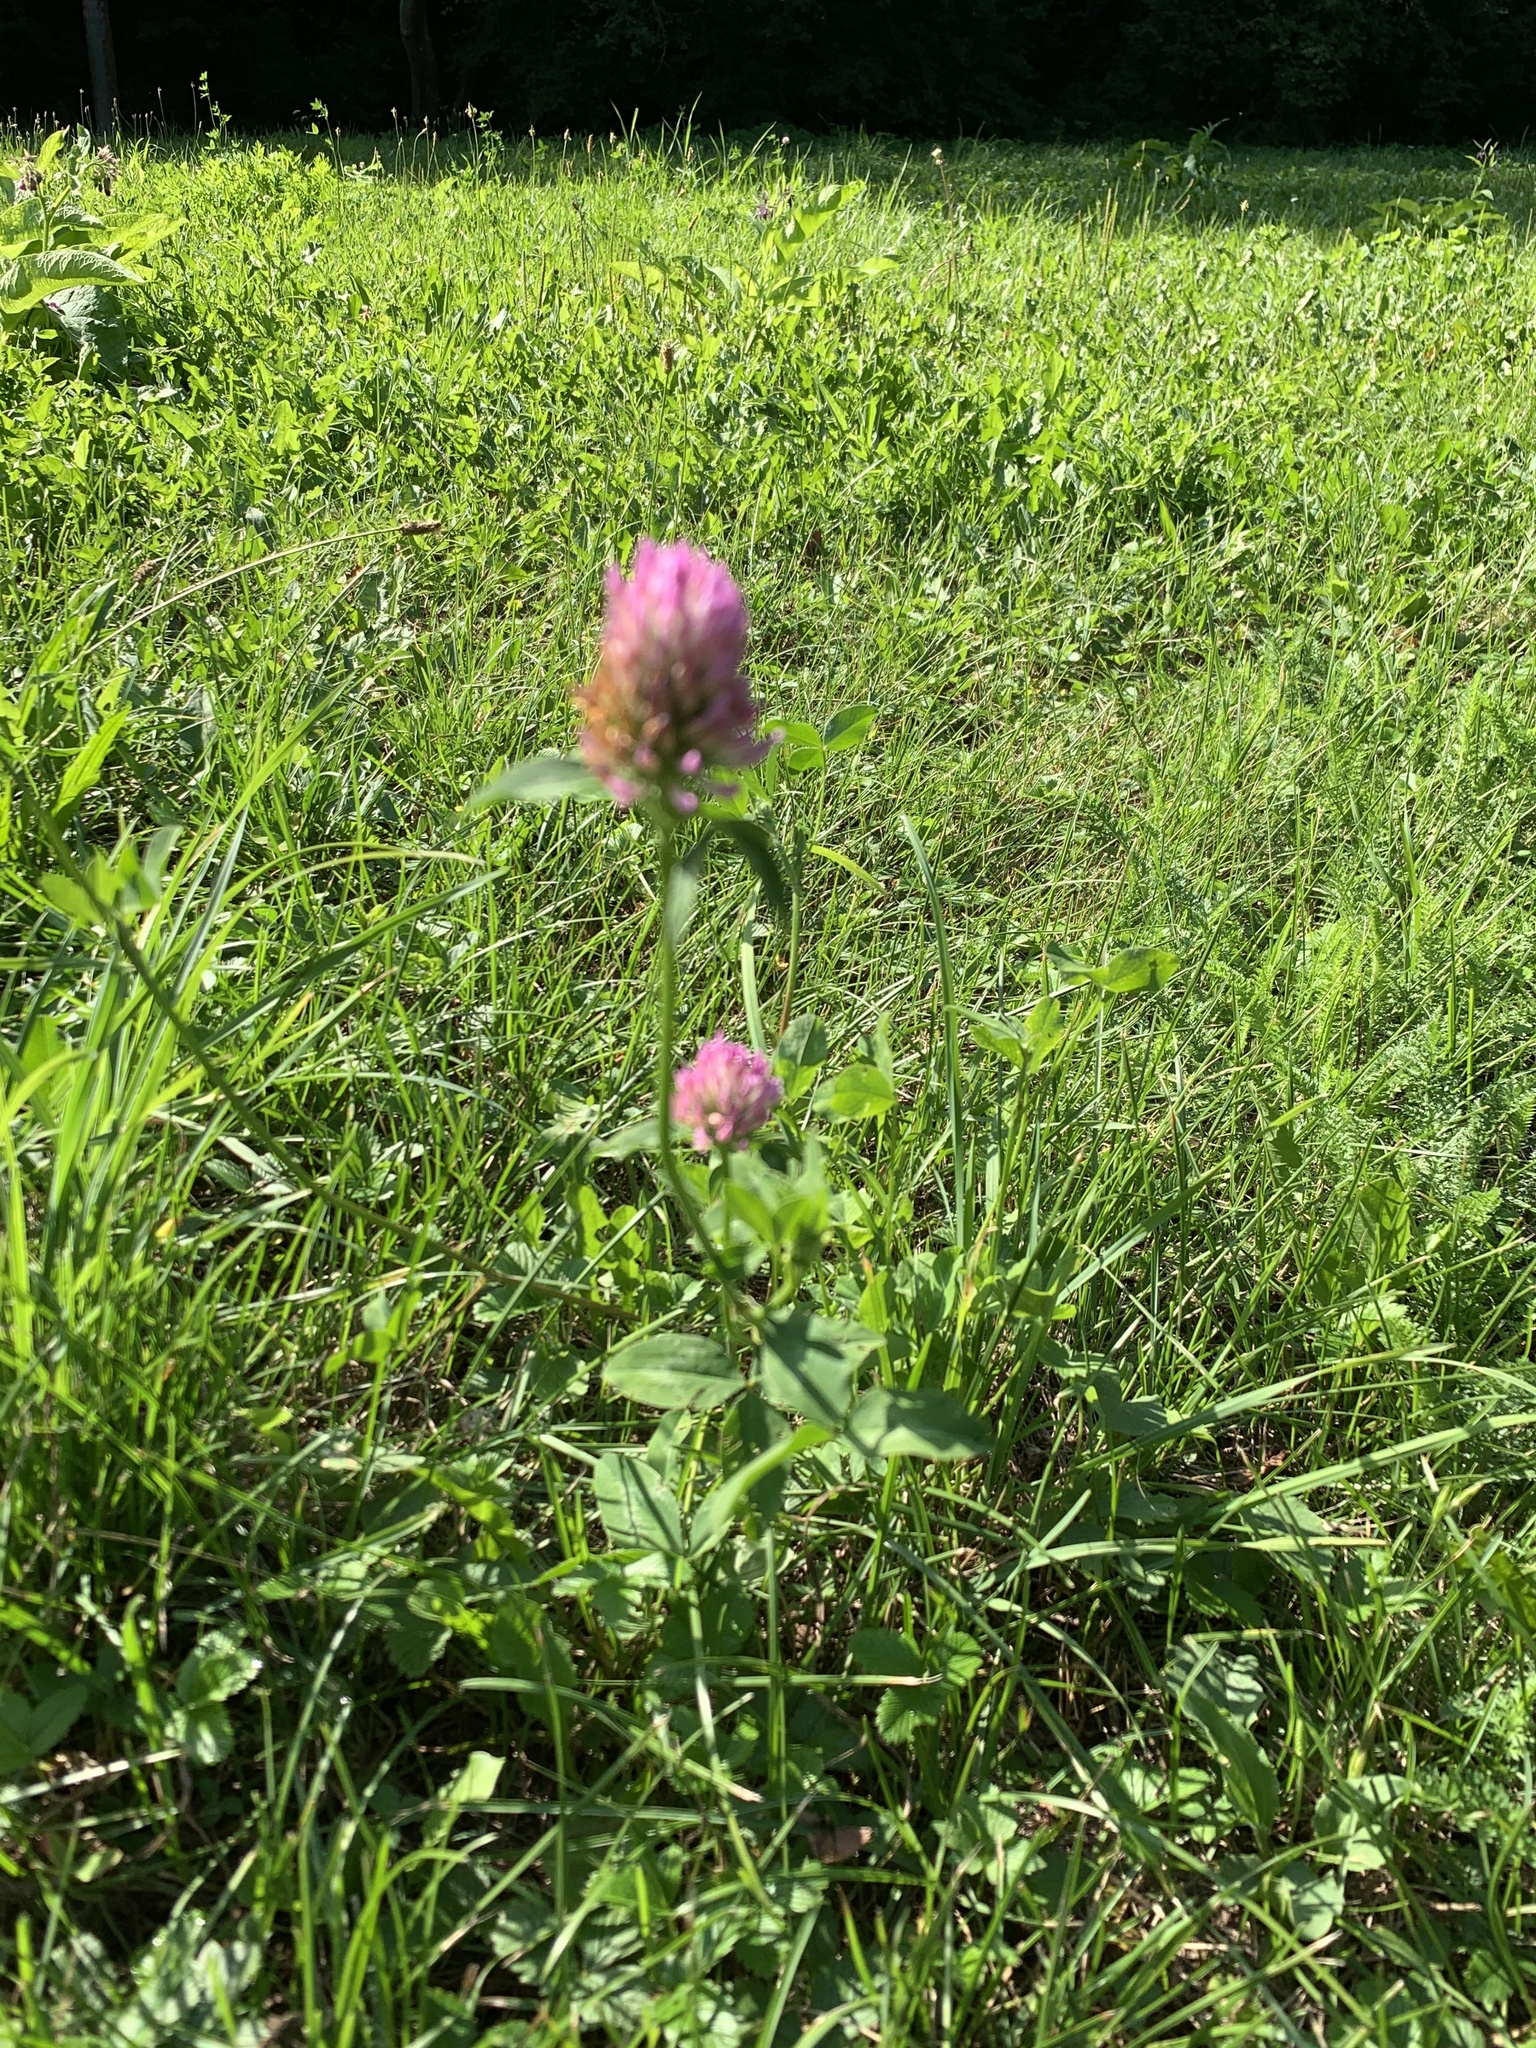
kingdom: Plantae
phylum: Tracheophyta
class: Magnoliopsida
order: Fabales
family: Fabaceae
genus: Trifolium
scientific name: Trifolium pratense
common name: Red clover
